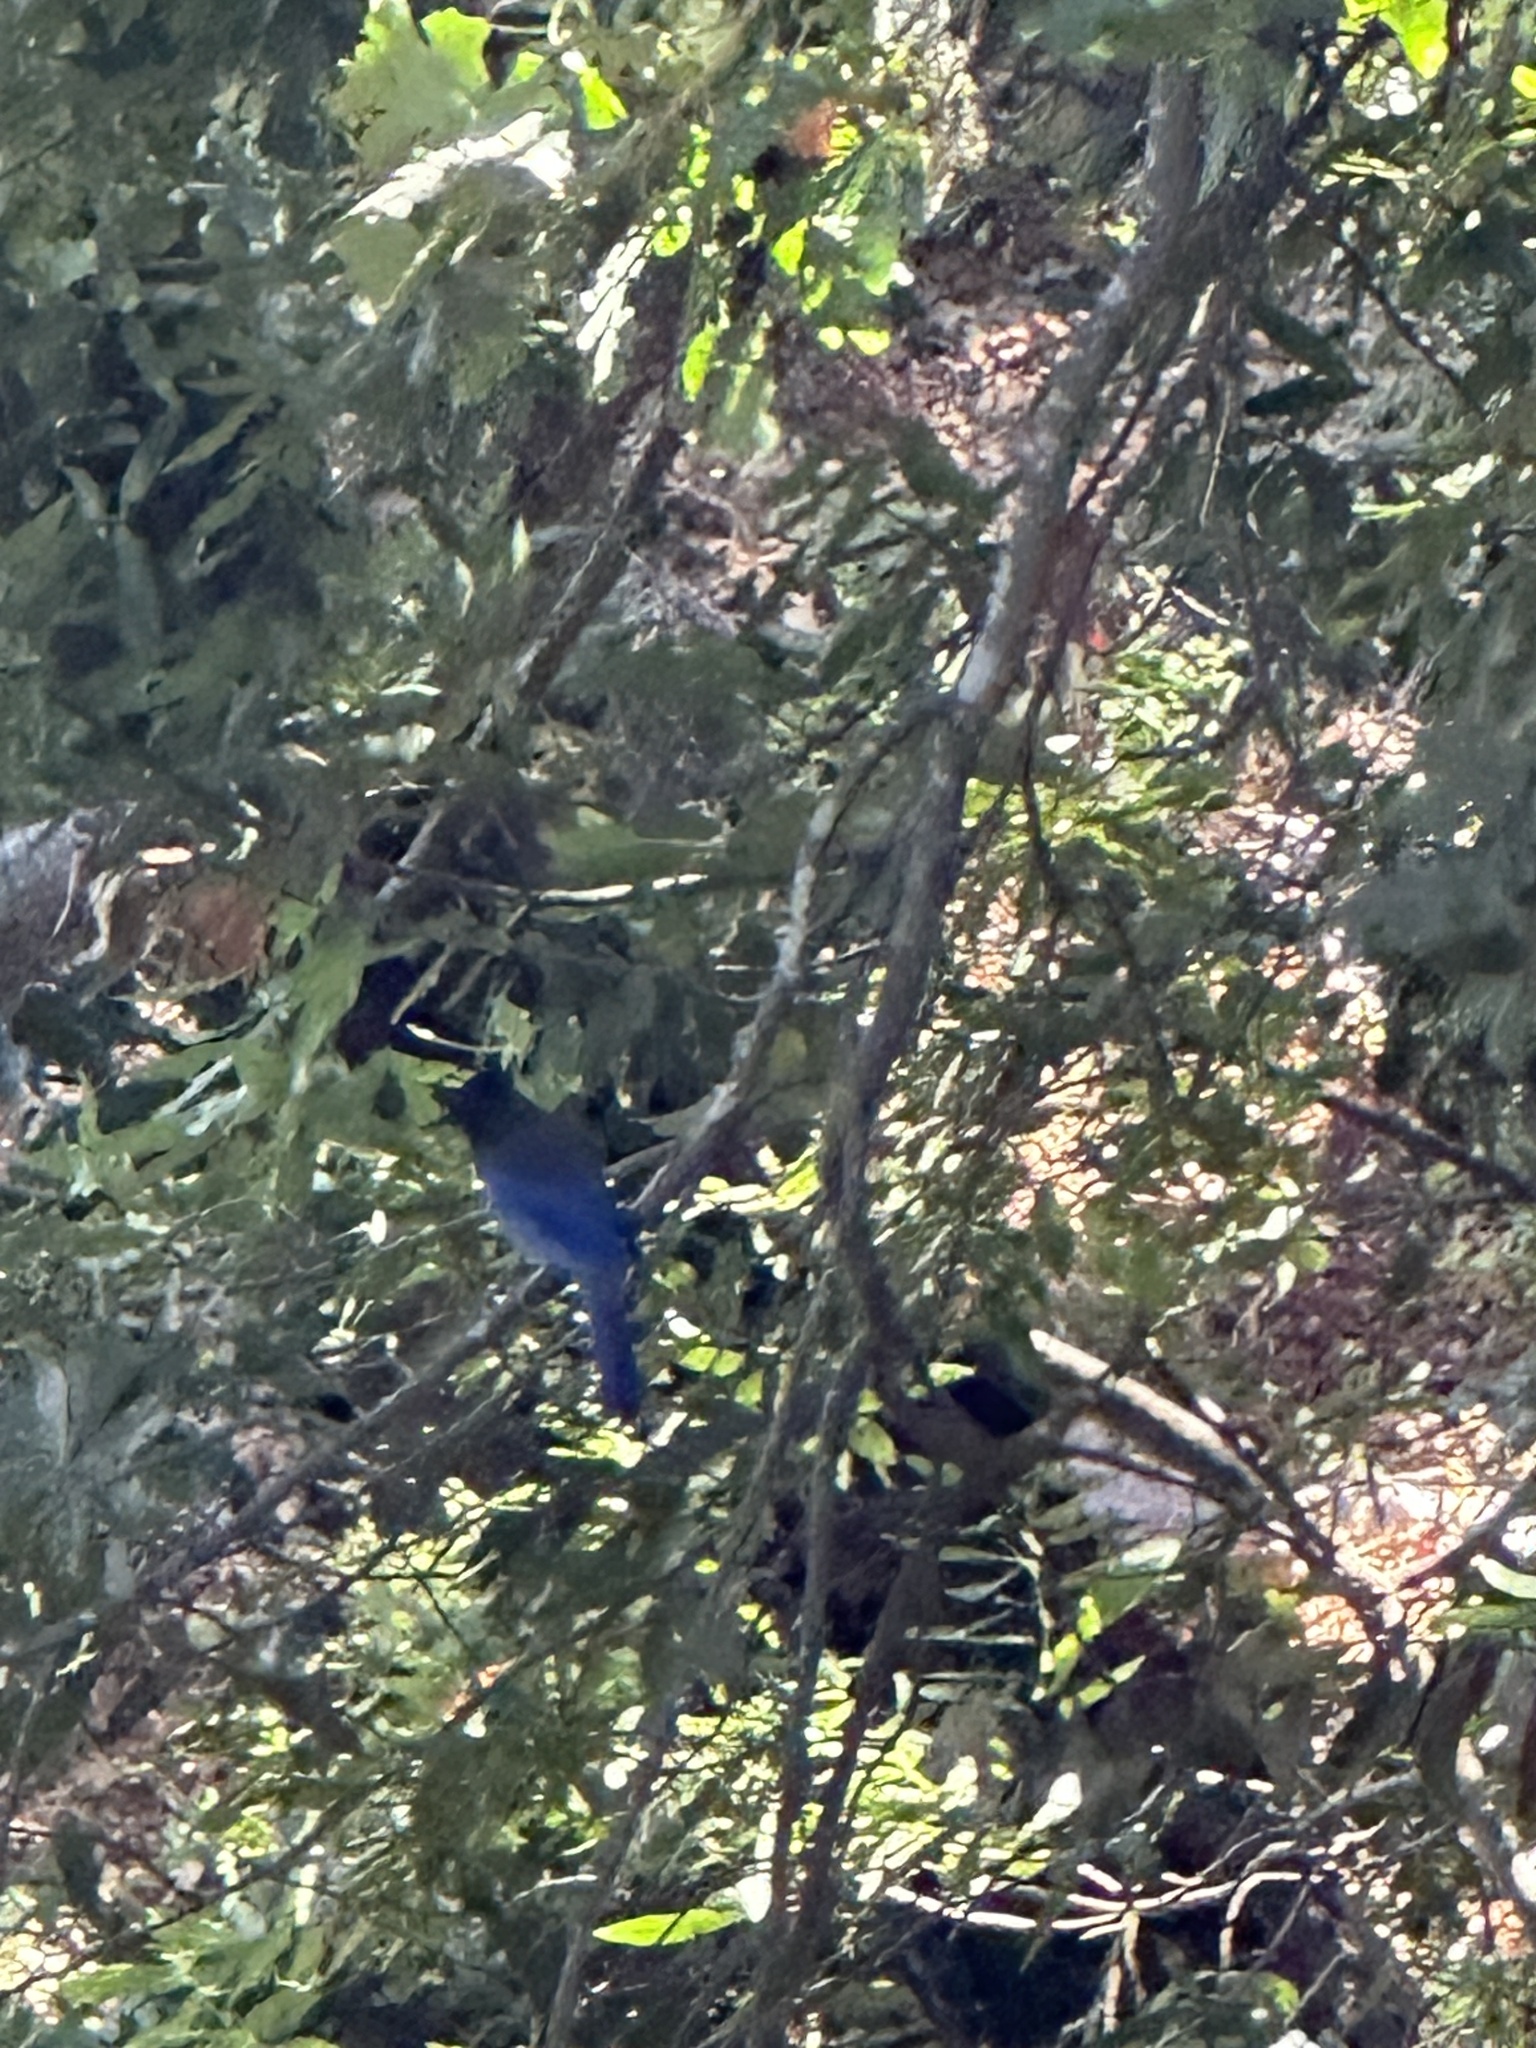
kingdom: Animalia
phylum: Chordata
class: Aves
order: Passeriformes
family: Corvidae
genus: Cyanocitta
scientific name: Cyanocitta stelleri
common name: Steller's jay
